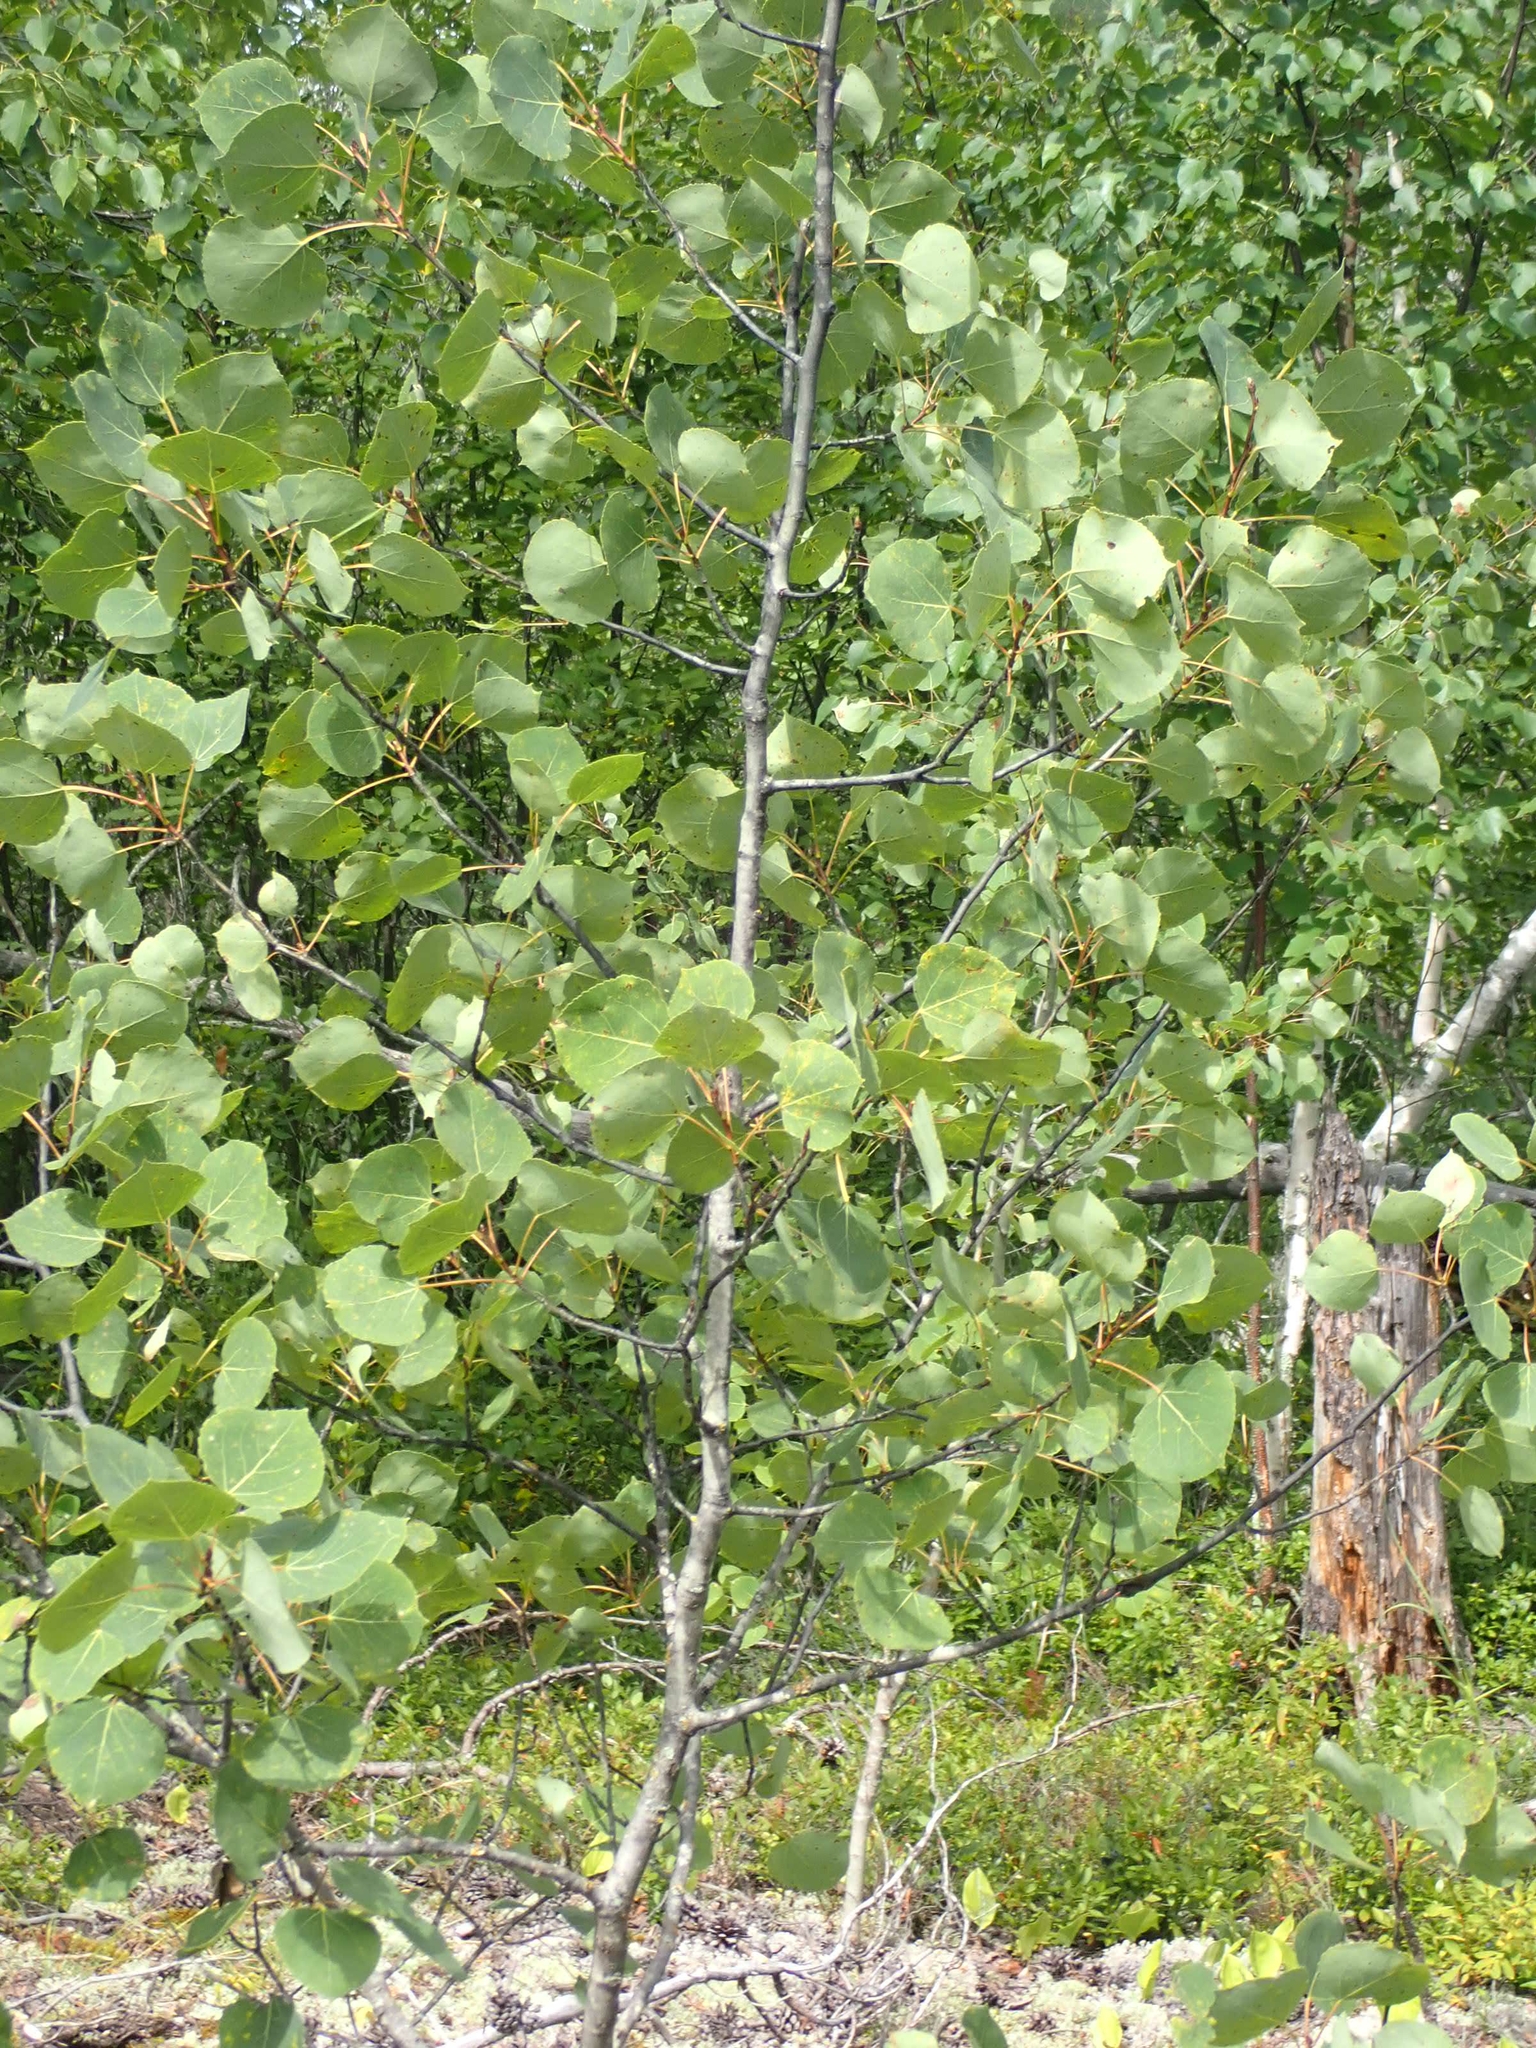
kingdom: Plantae
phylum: Tracheophyta
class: Magnoliopsida
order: Malpighiales
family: Salicaceae
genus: Populus
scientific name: Populus tremuloides
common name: Quaking aspen
